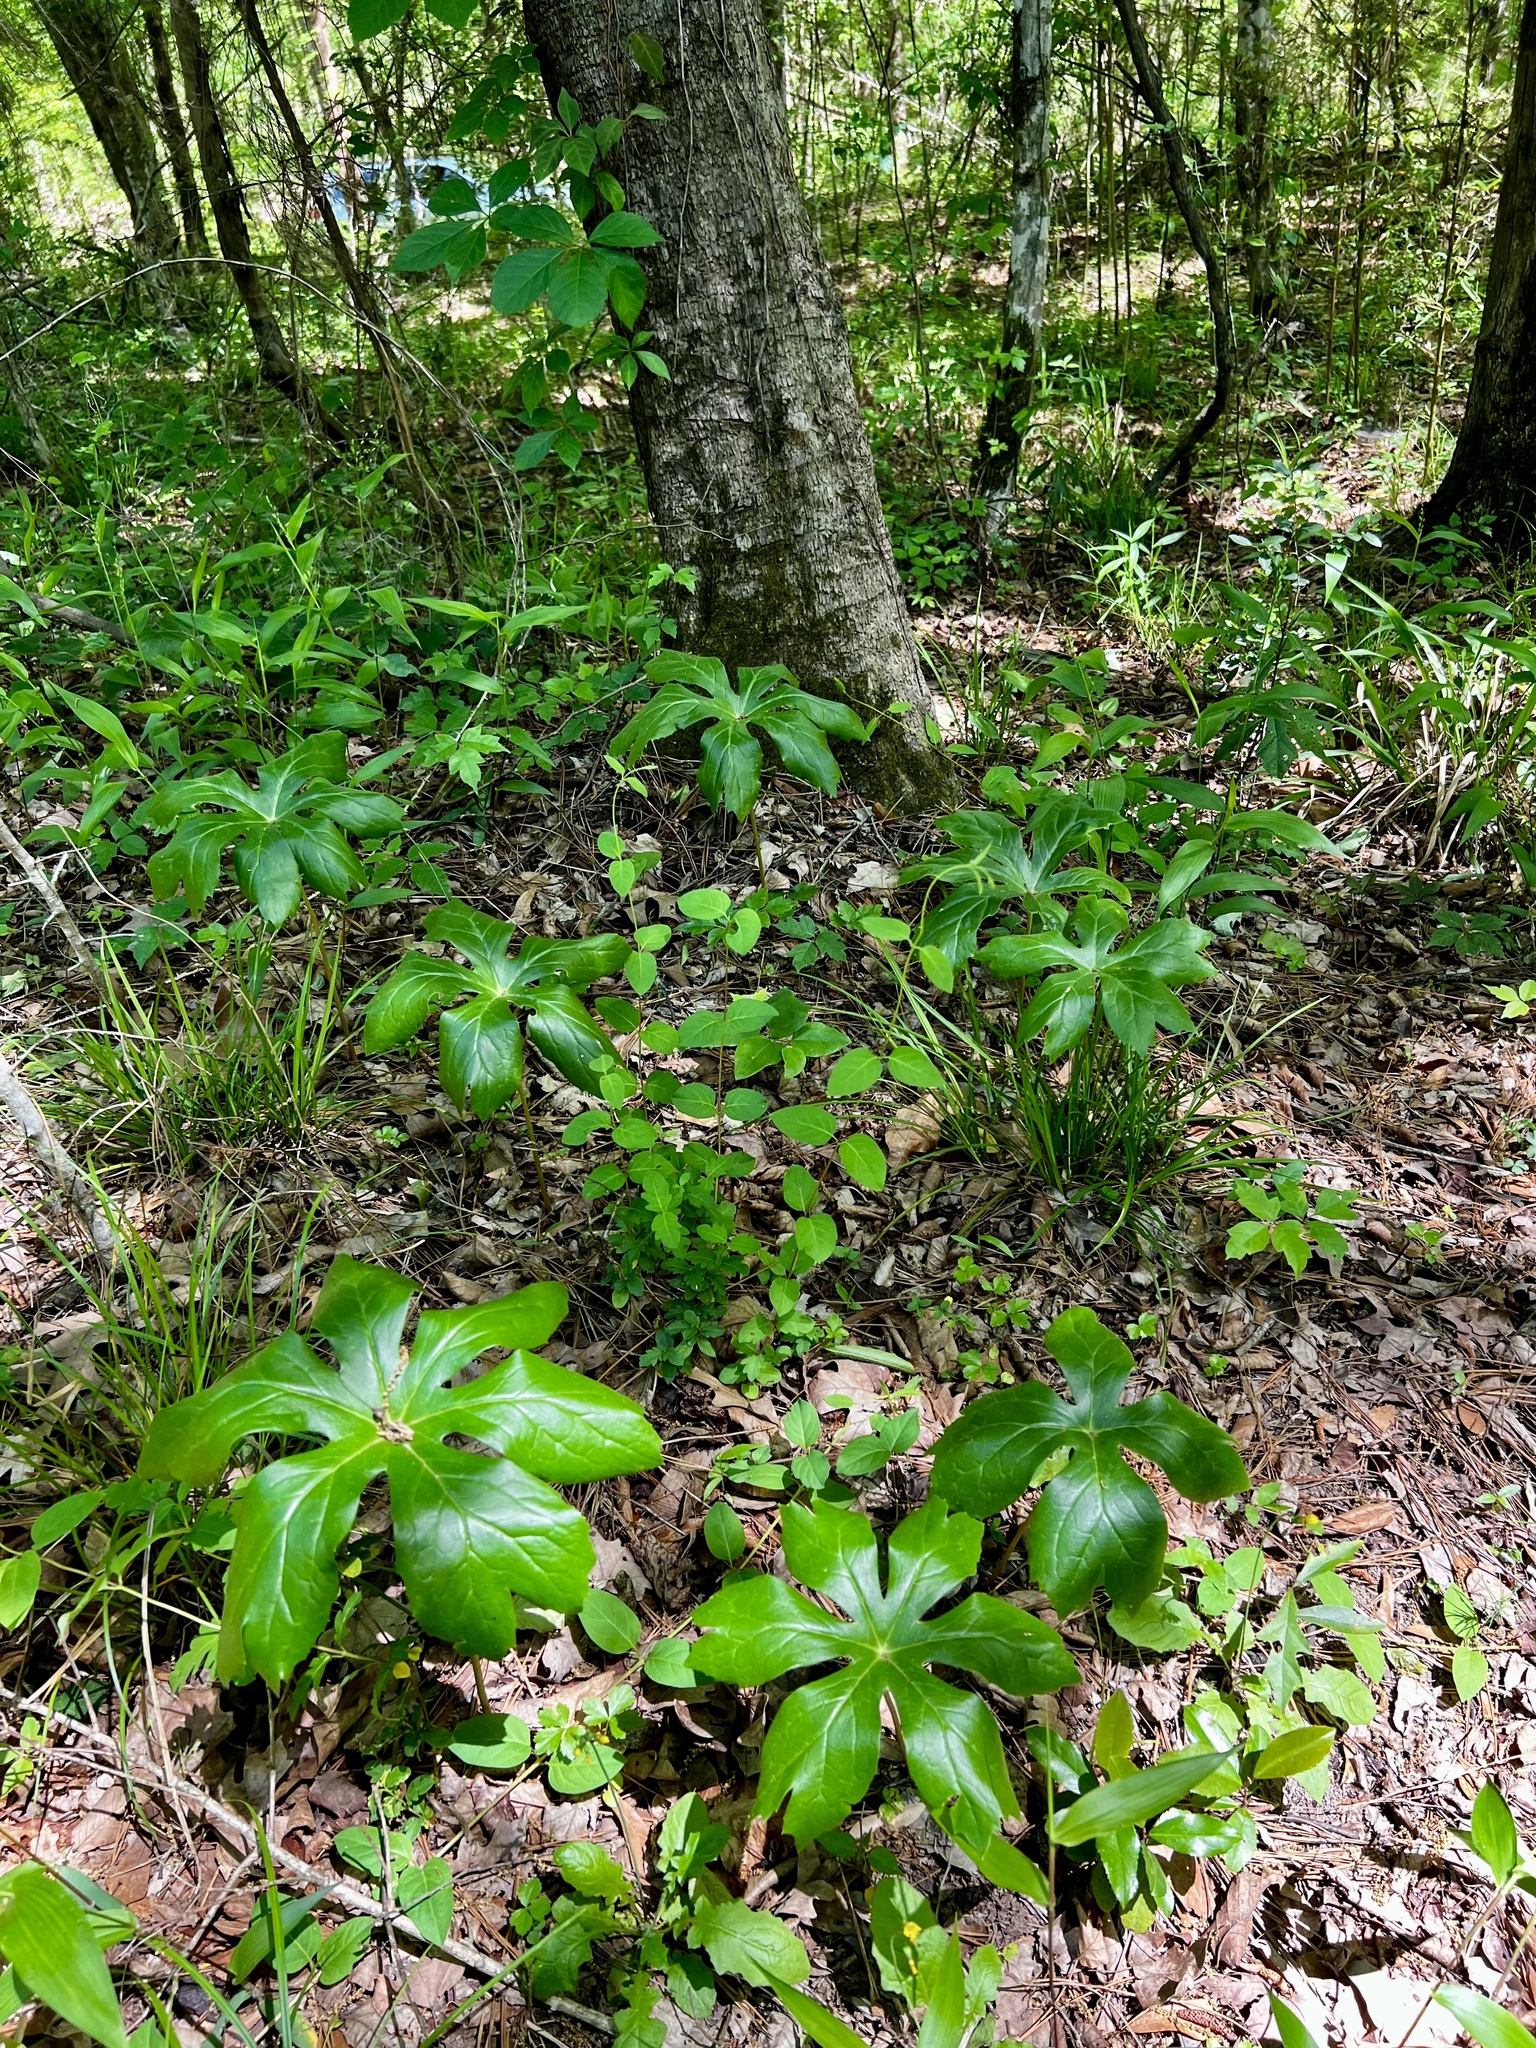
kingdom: Plantae
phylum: Tracheophyta
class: Magnoliopsida
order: Ranunculales
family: Berberidaceae
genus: Podophyllum
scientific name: Podophyllum peltatum
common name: Wild mandrake
